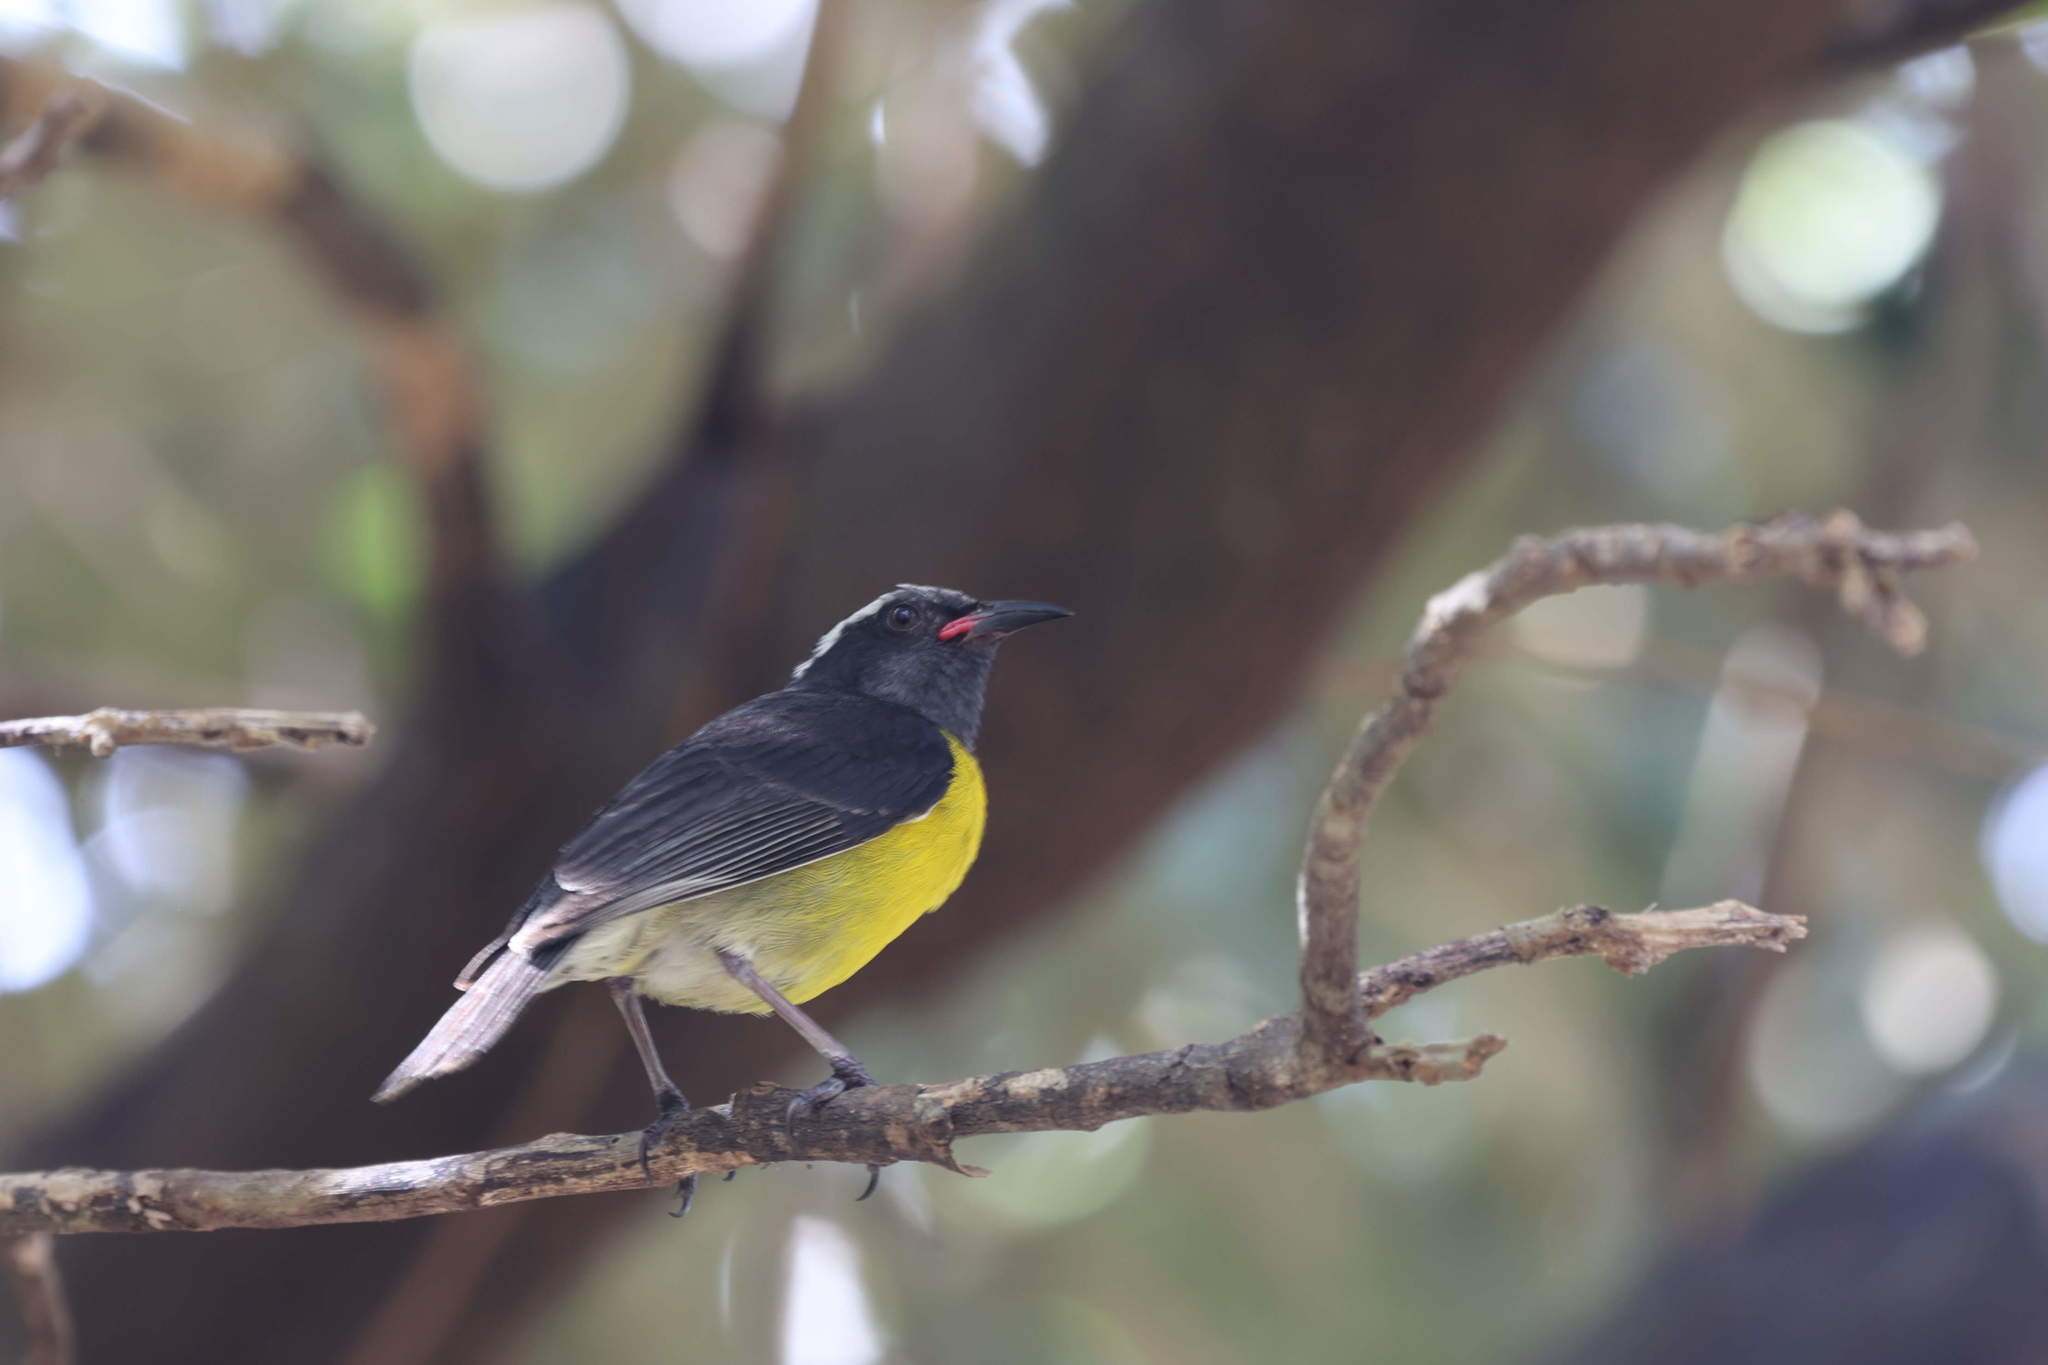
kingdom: Animalia
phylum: Chordata
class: Aves
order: Passeriformes
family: Thraupidae
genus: Coereba
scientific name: Coereba flaveola
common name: Bananaquit
